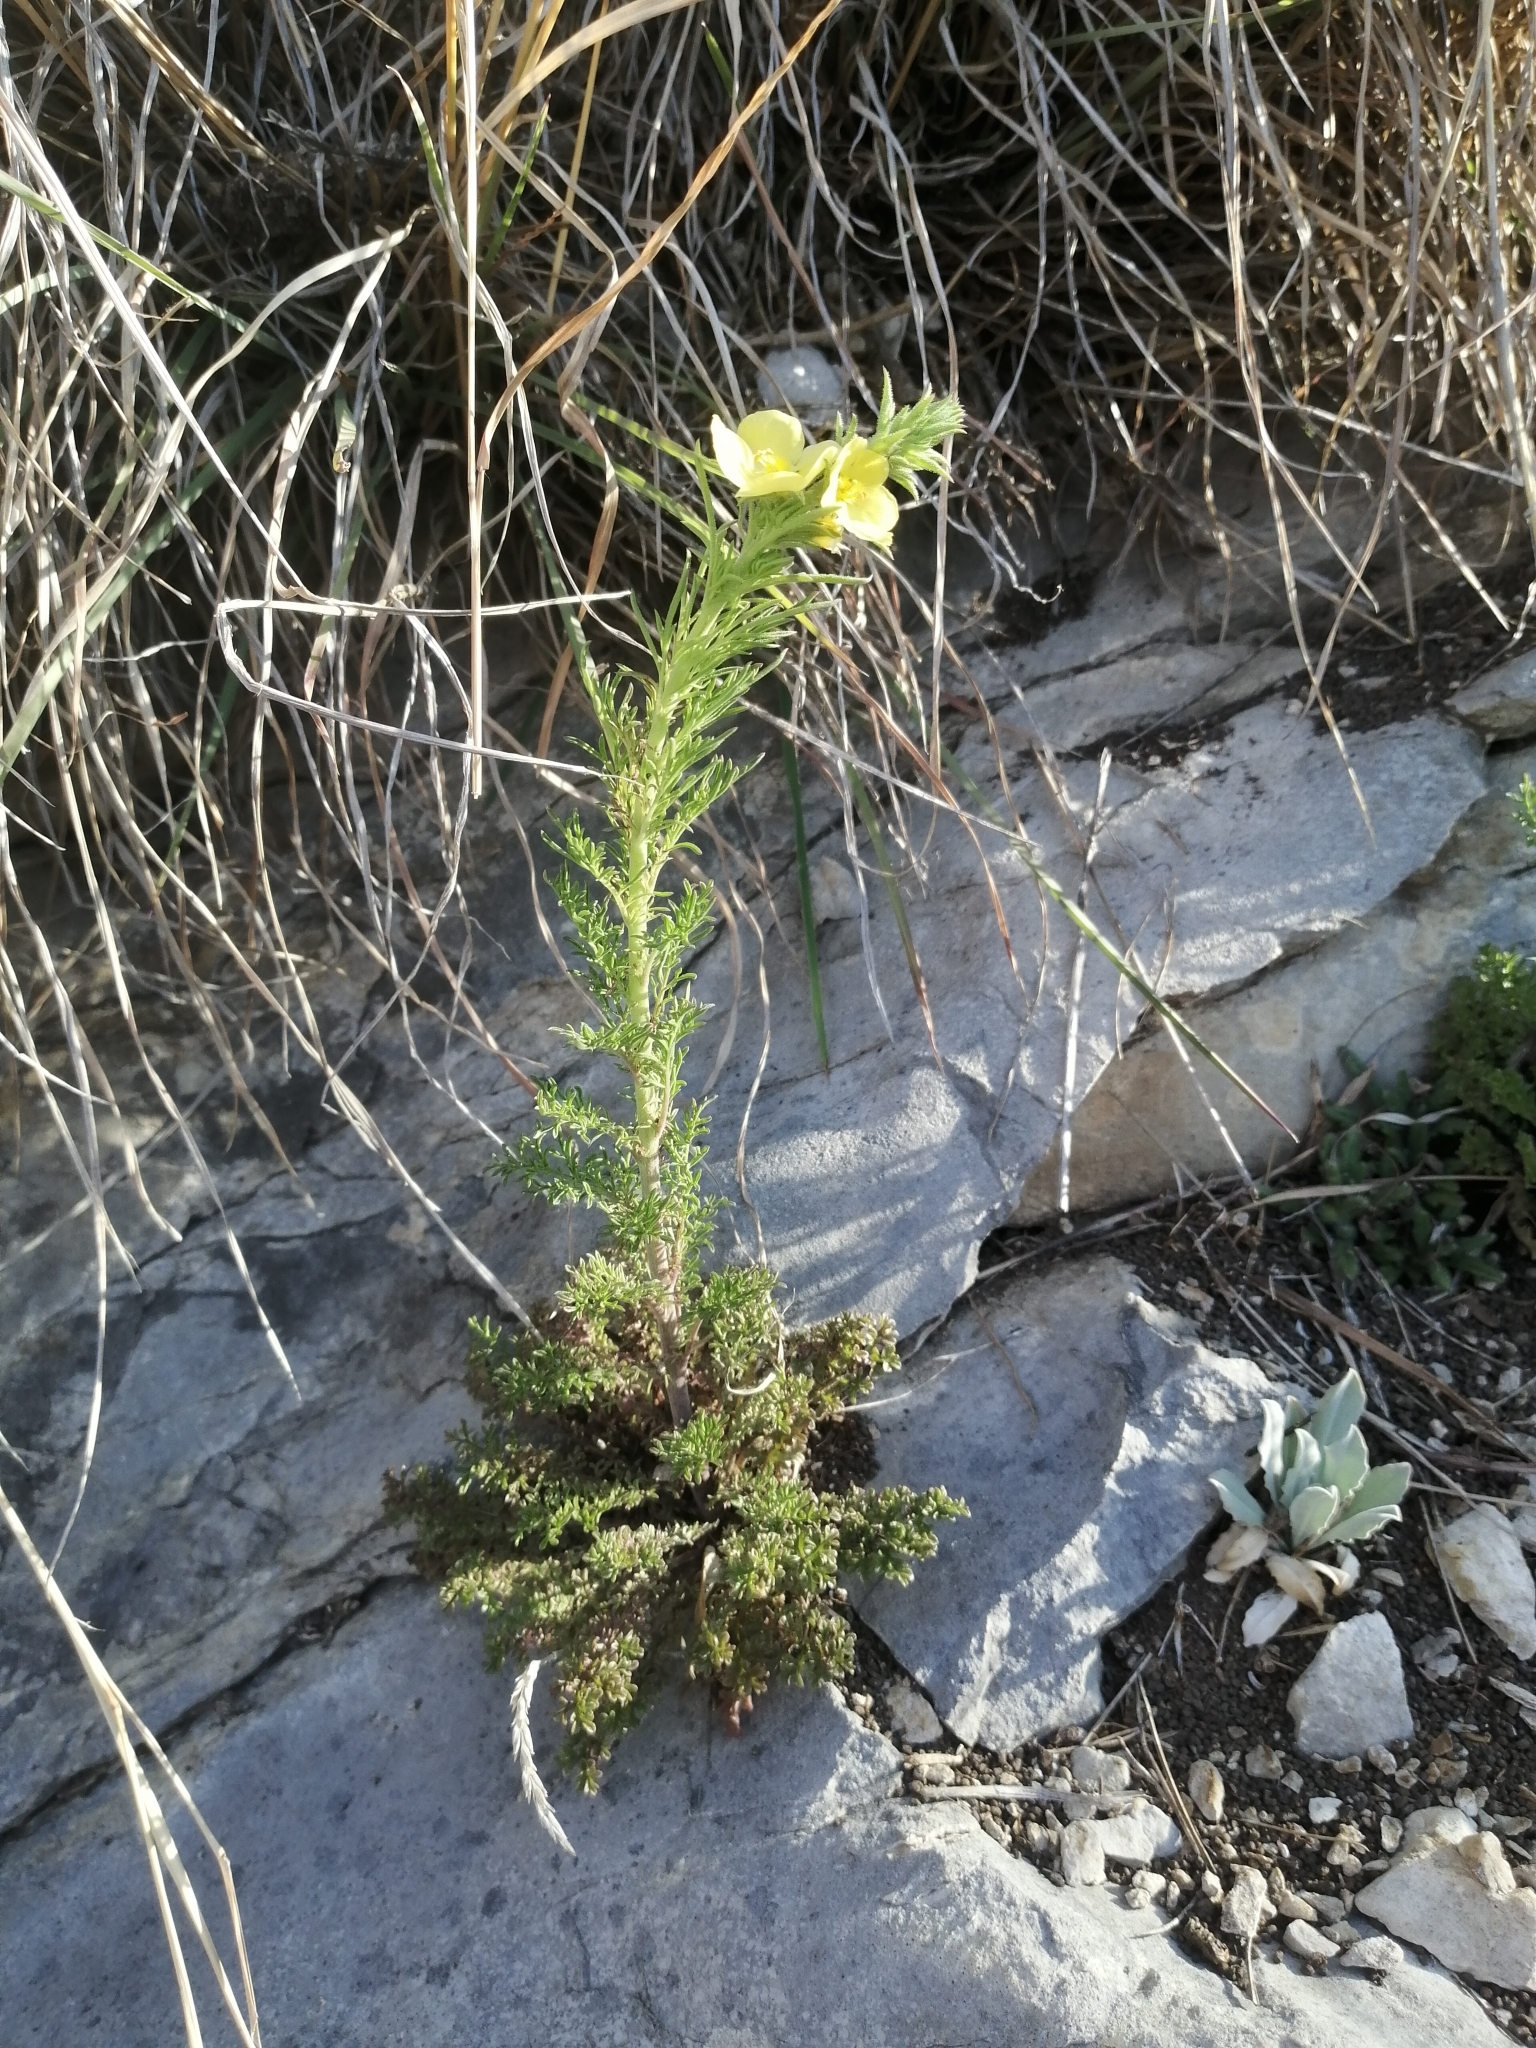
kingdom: Plantae
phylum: Tracheophyta
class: Magnoliopsida
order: Lamiales
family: Scrophulariaceae
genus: Verbascum
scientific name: Verbascum orientale
